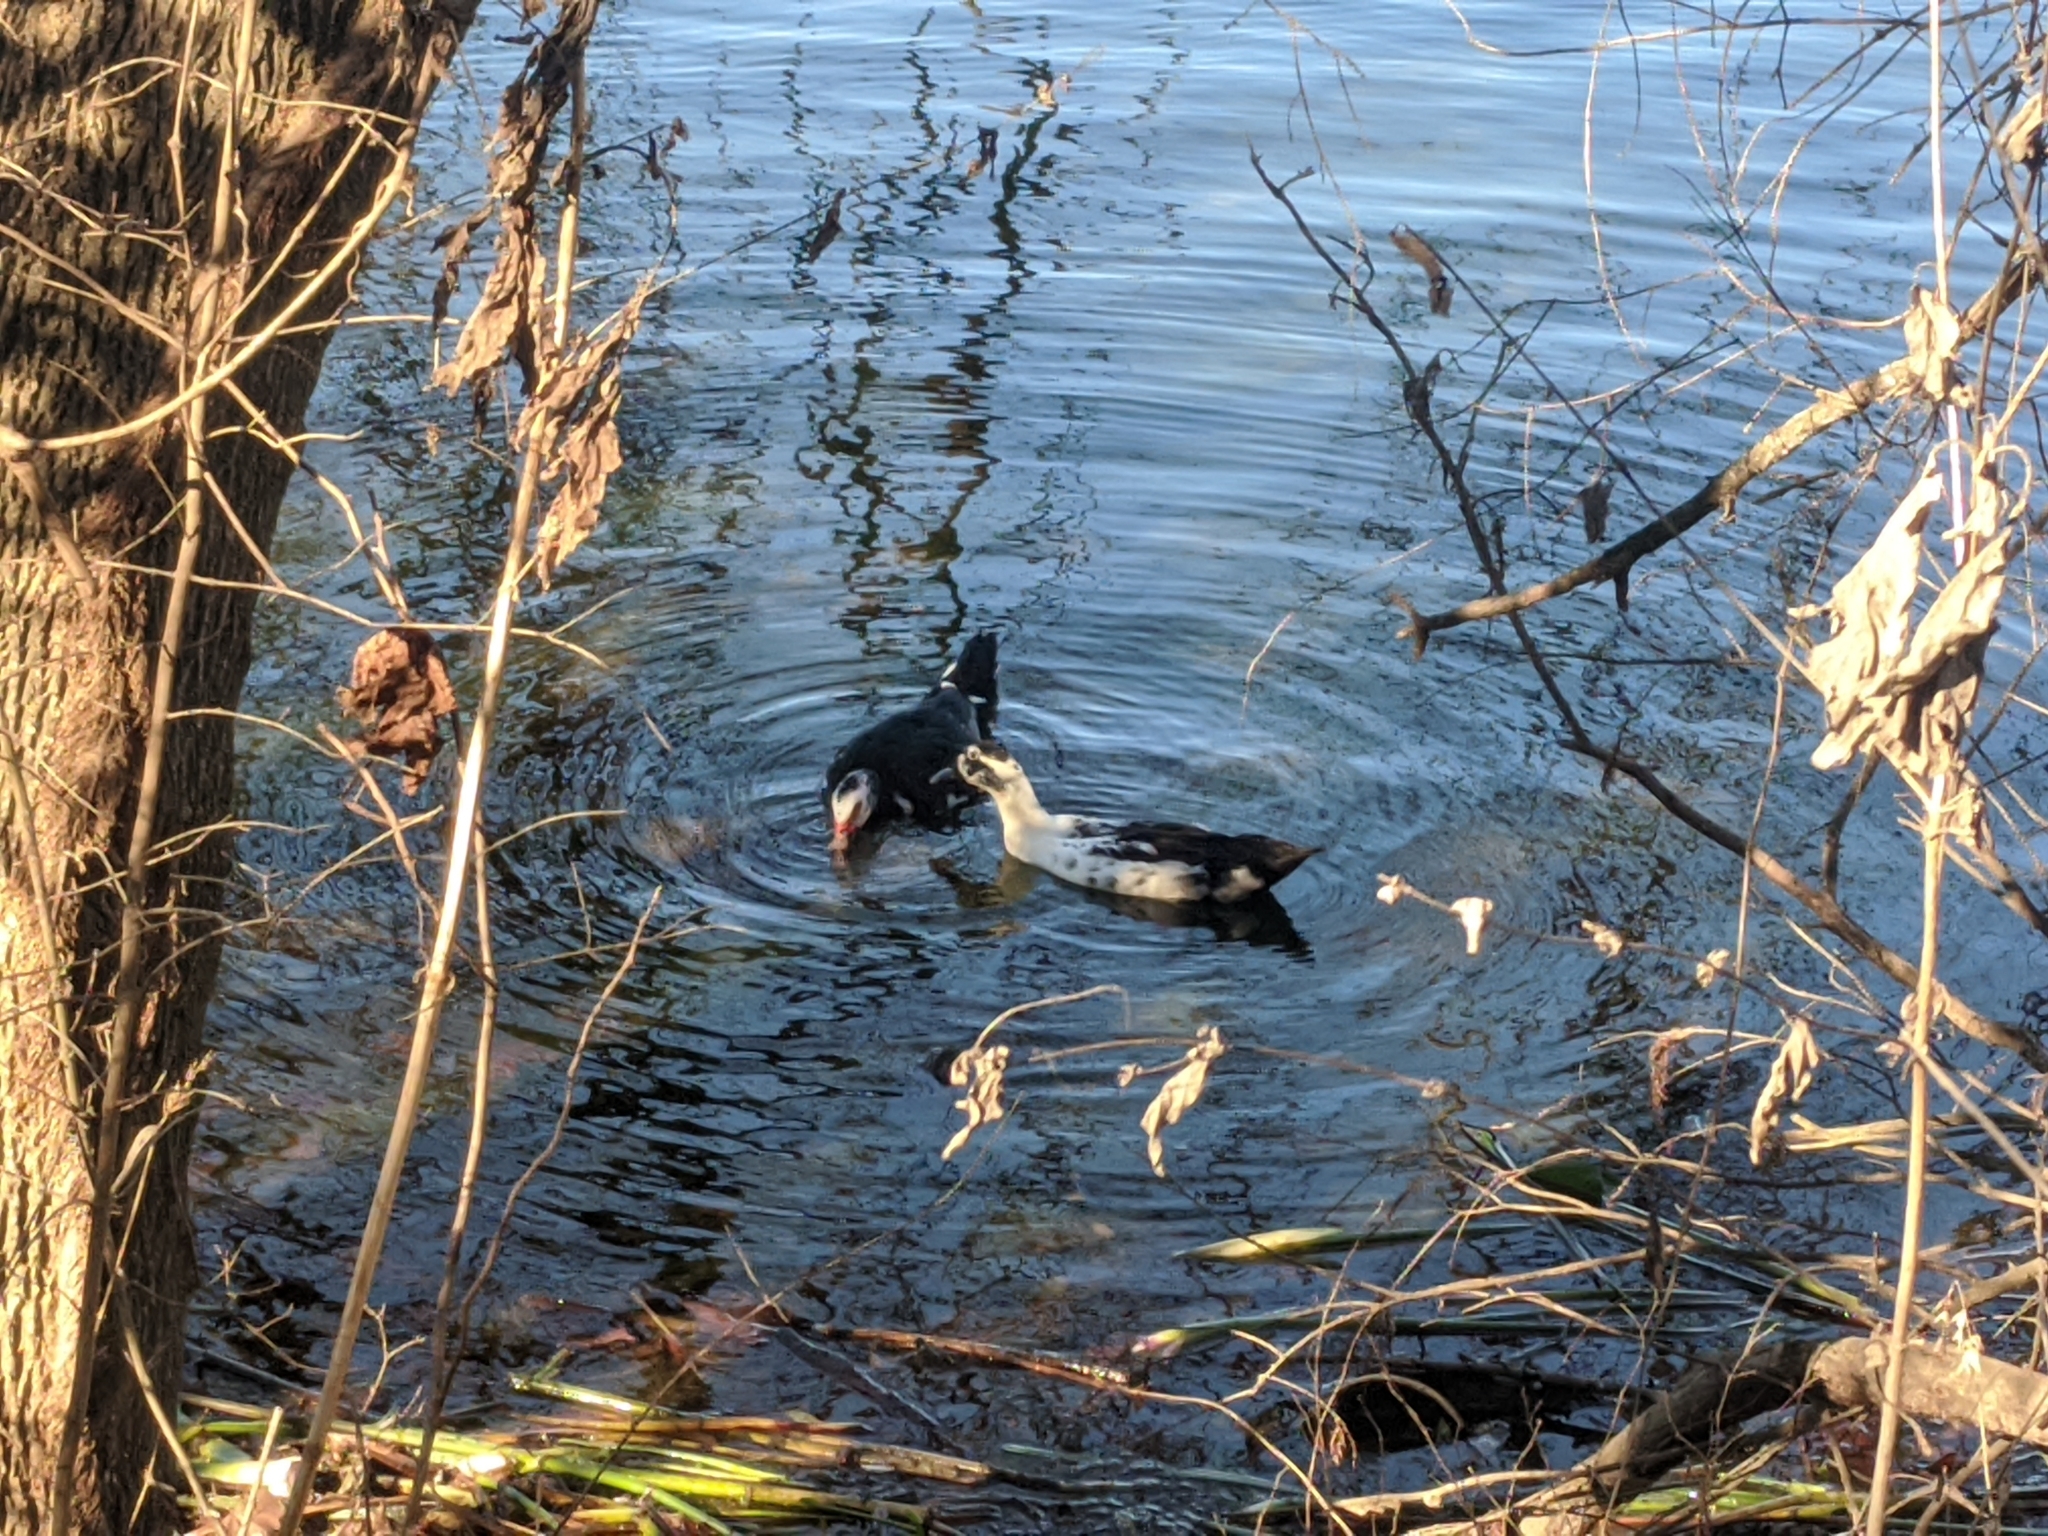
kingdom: Animalia
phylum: Chordata
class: Aves
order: Anseriformes
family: Anatidae
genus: Anas
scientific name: Anas platyrhynchos
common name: Mallard
